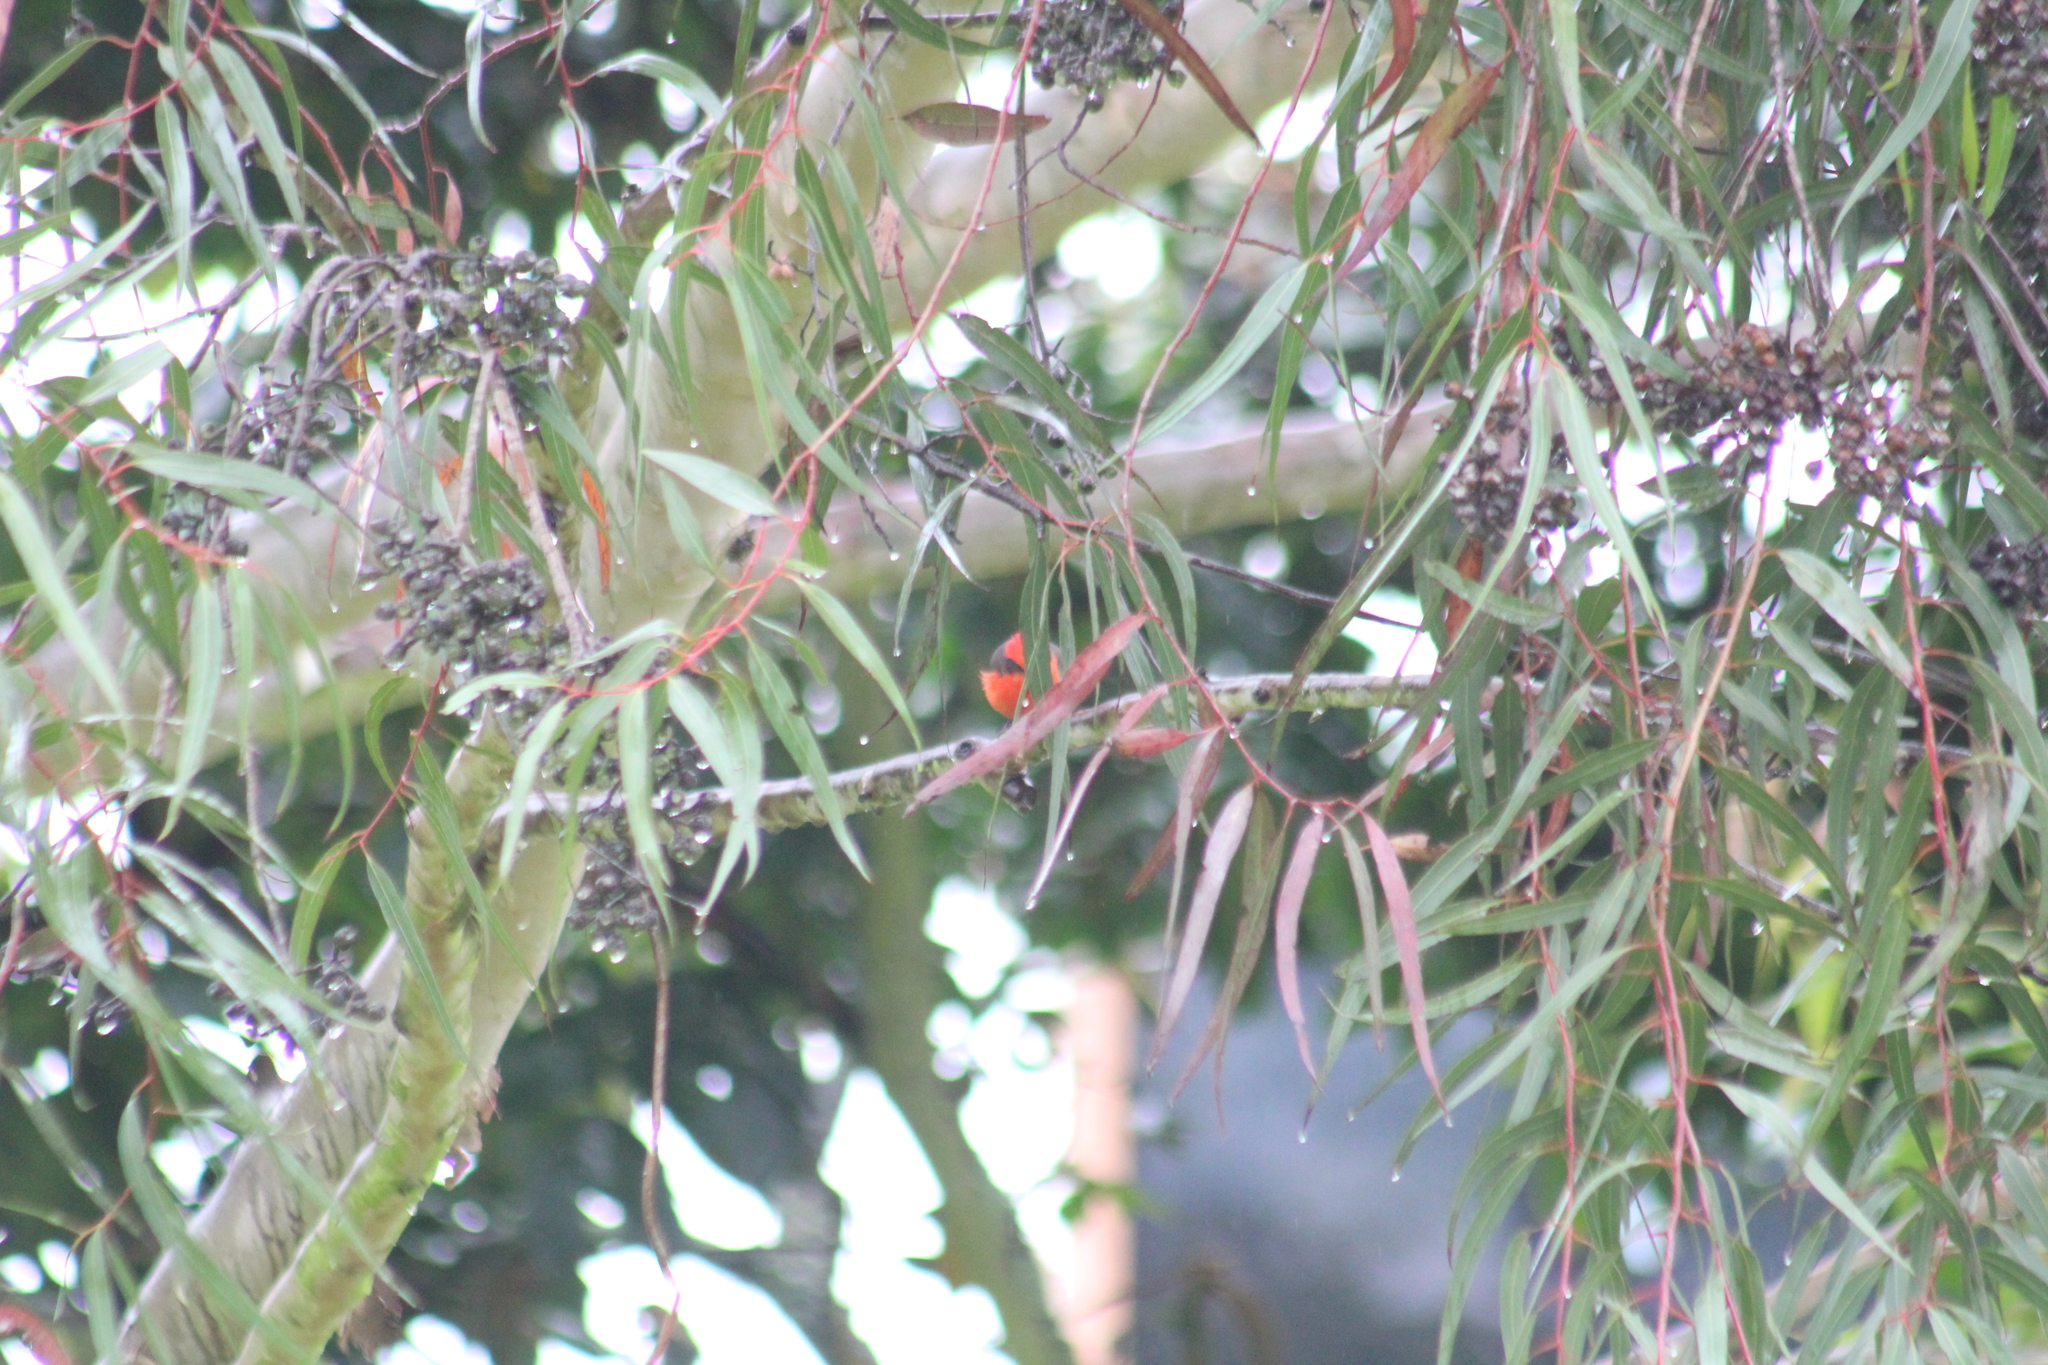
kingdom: Animalia
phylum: Chordata
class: Aves
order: Passeriformes
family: Tyrannidae
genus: Pyrocephalus
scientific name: Pyrocephalus rubinus
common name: Vermilion flycatcher
